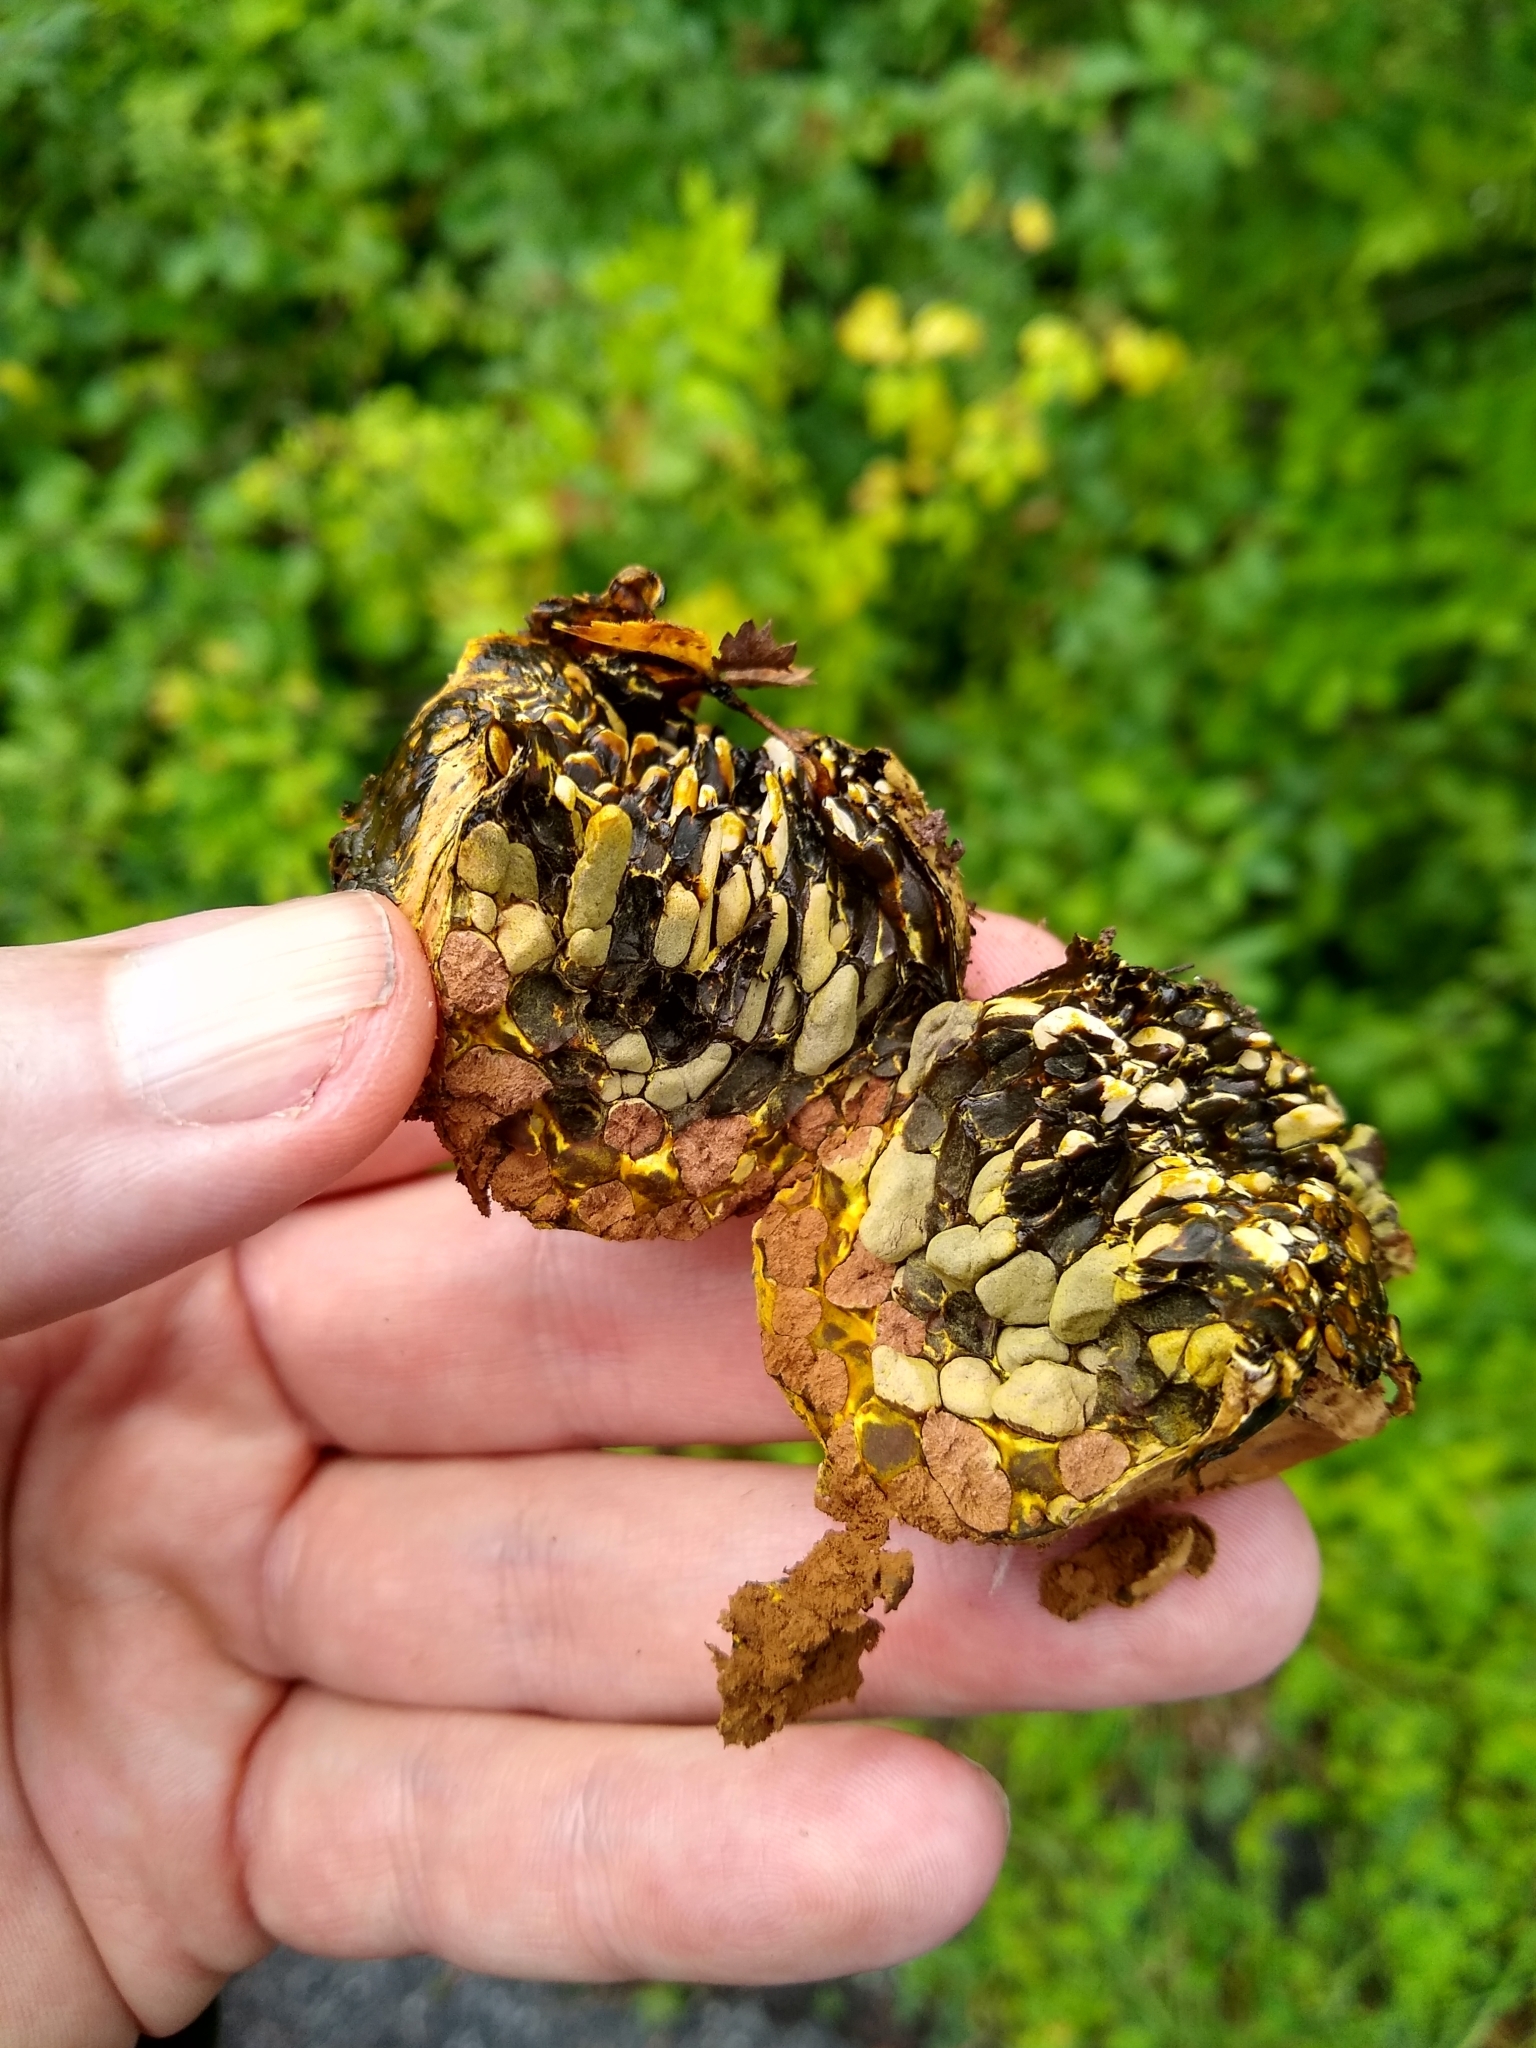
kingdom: Fungi
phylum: Basidiomycota
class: Agaricomycetes
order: Boletales
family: Sclerodermataceae
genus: Pisolithus
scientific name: Pisolithus arenarius
